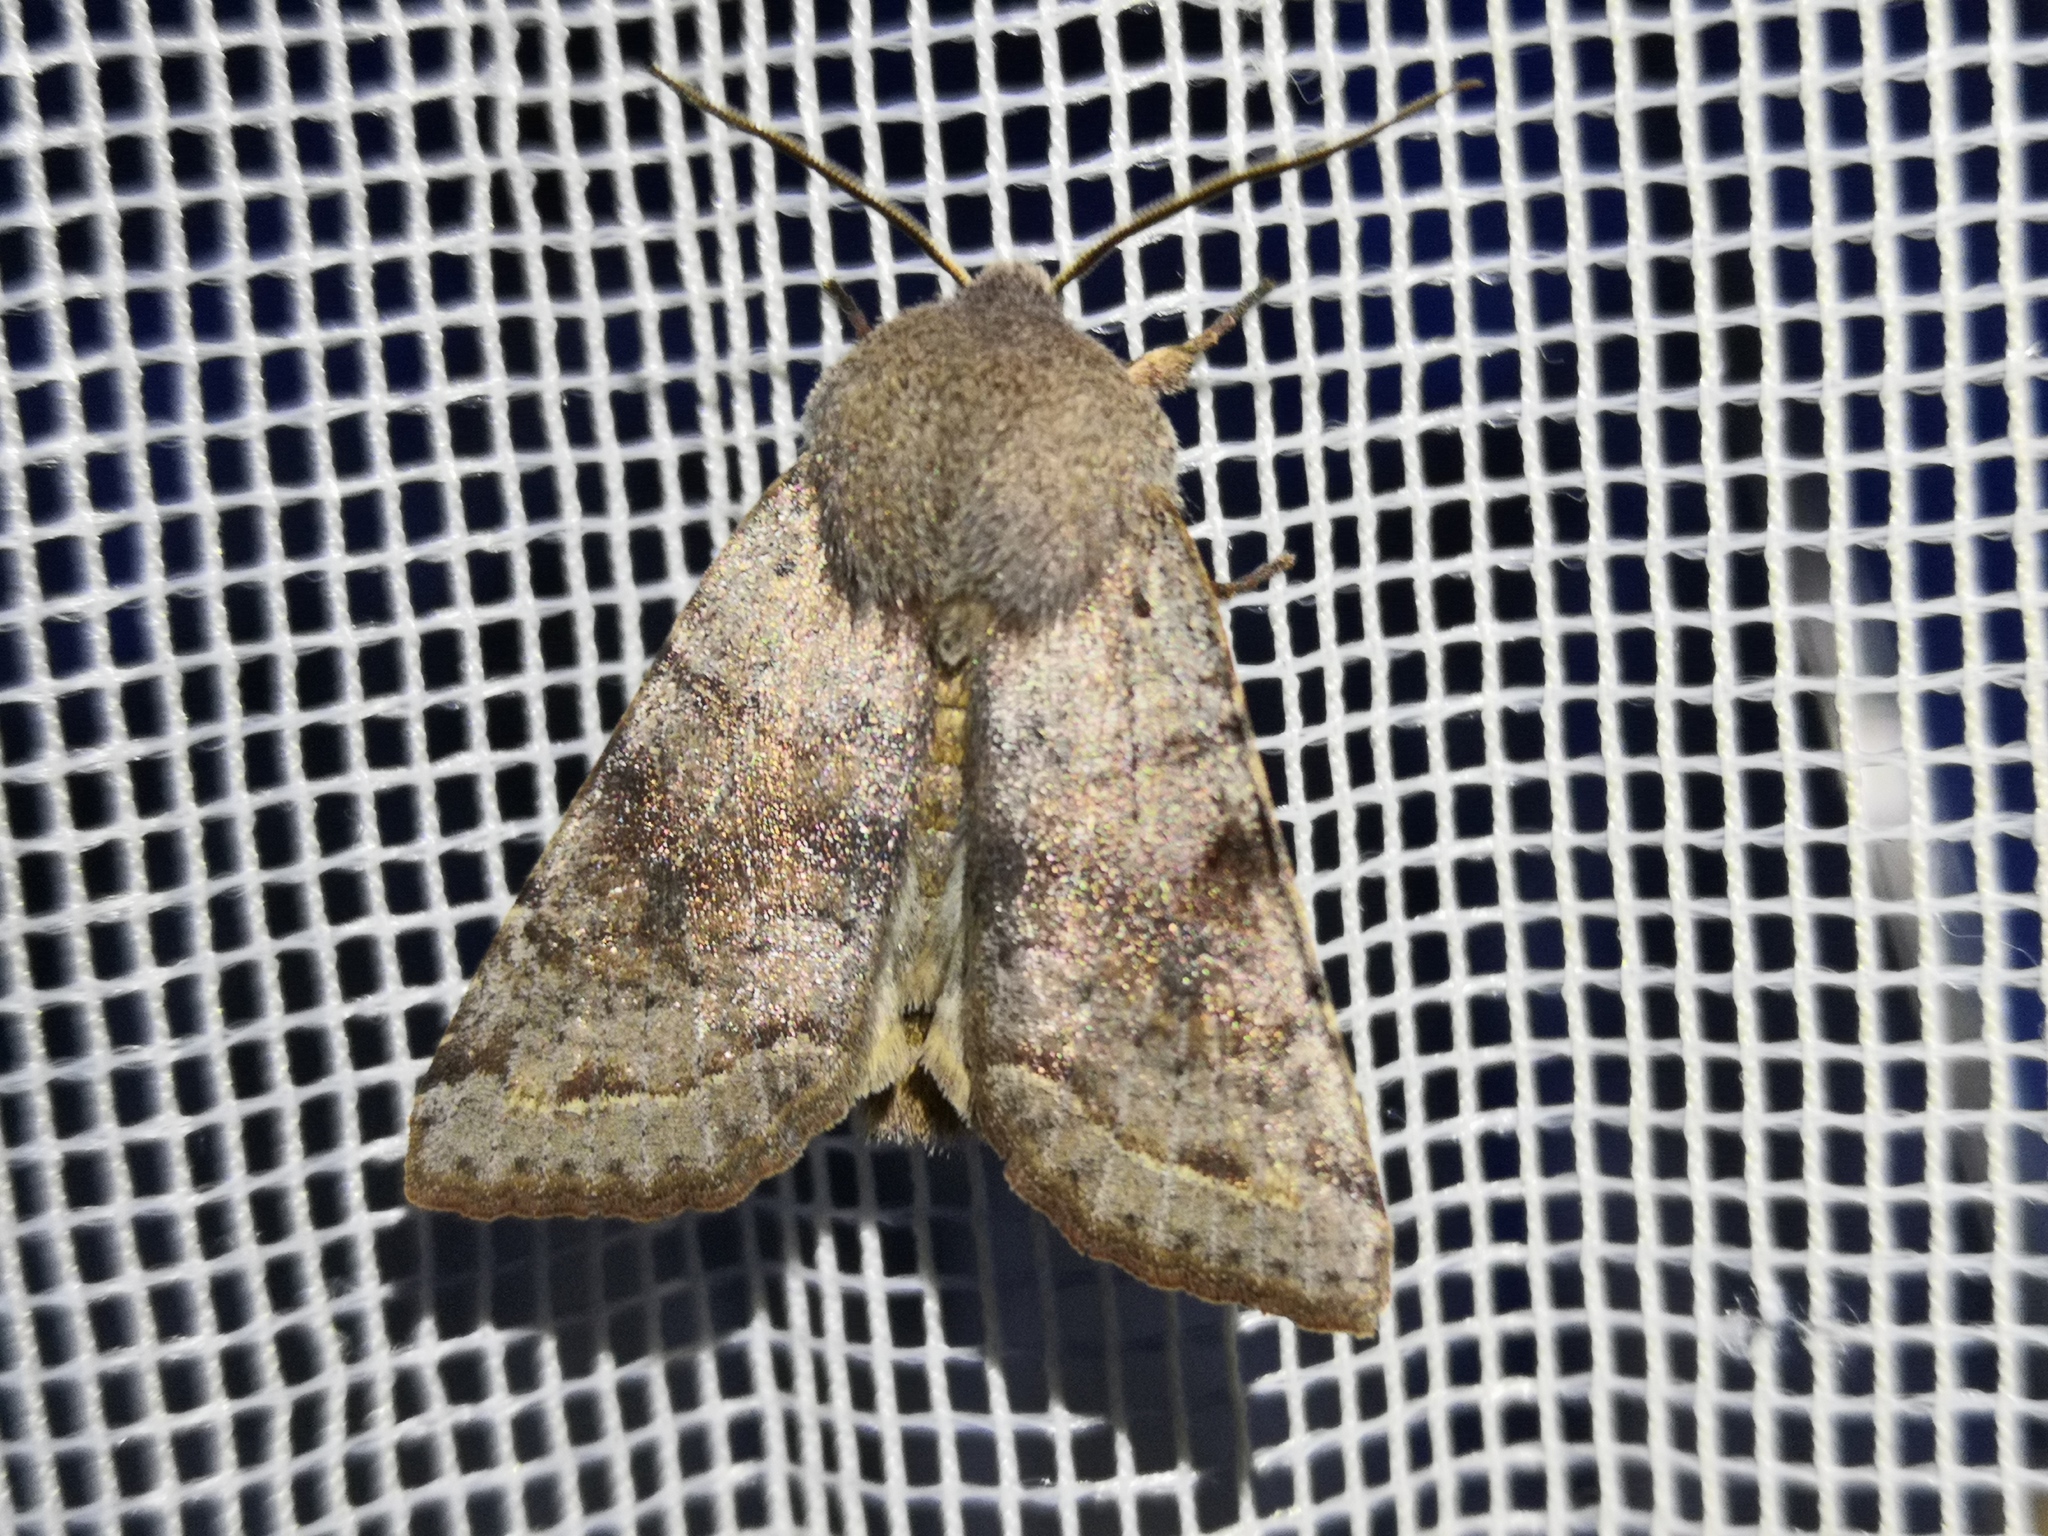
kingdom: Animalia
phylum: Arthropoda
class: Insecta
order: Lepidoptera
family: Noctuidae
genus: Orthosia
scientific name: Orthosia incerta
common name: Clouded drab
